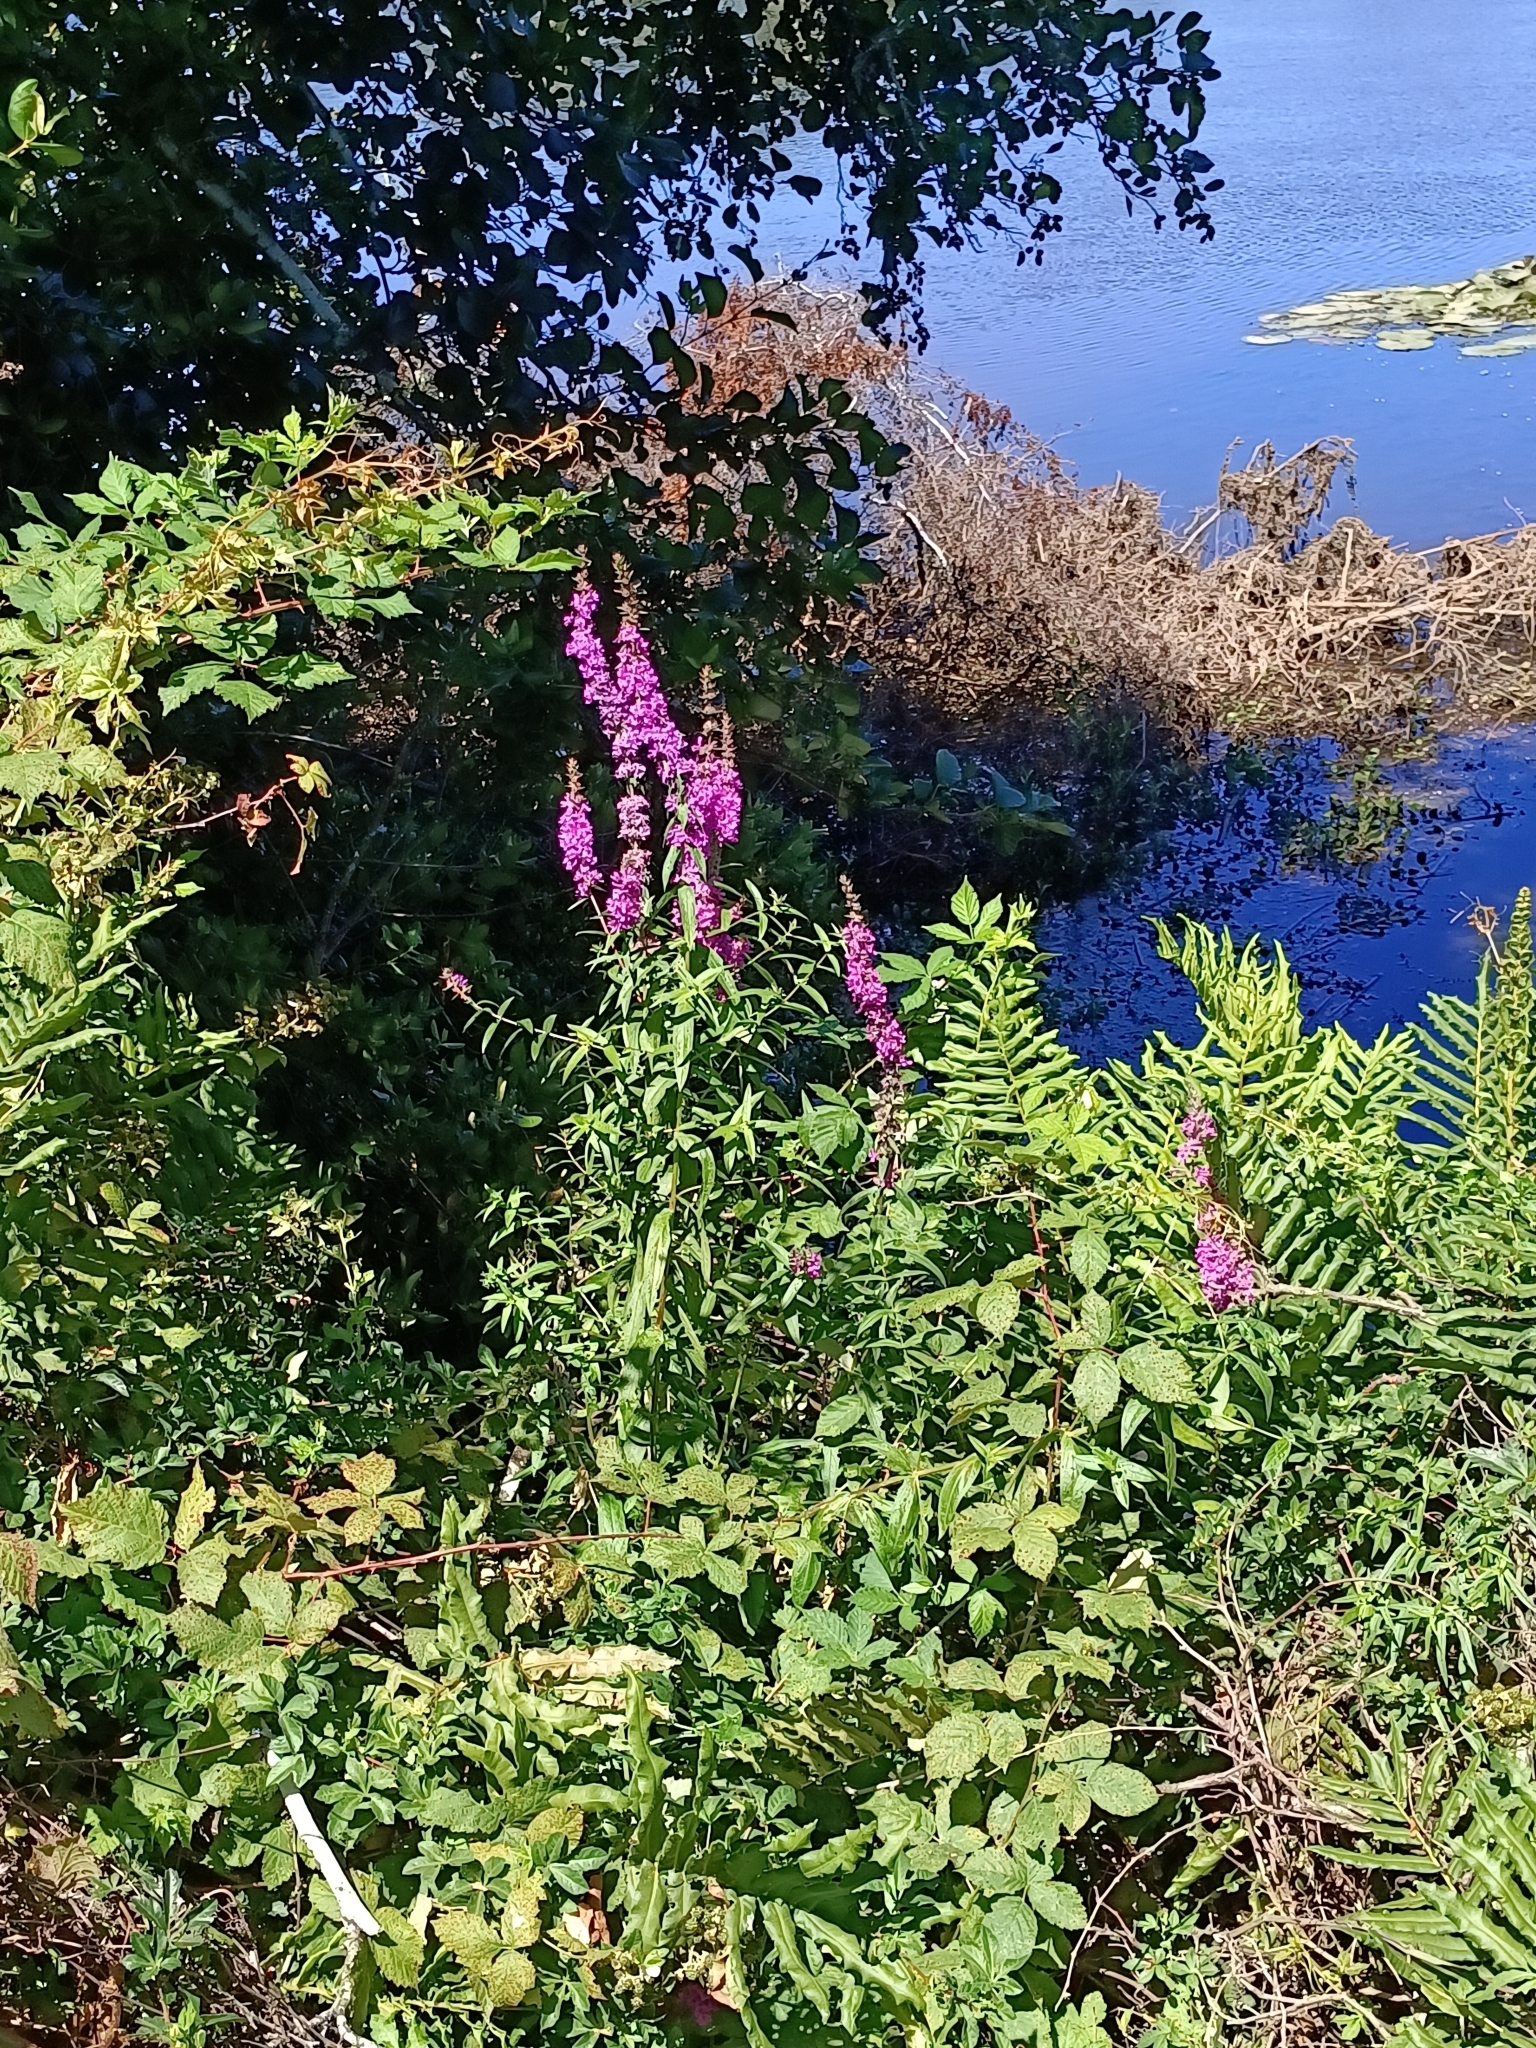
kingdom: Plantae
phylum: Tracheophyta
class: Magnoliopsida
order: Myrtales
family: Lythraceae
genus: Lythrum
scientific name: Lythrum salicaria
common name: Purple loosestrife
